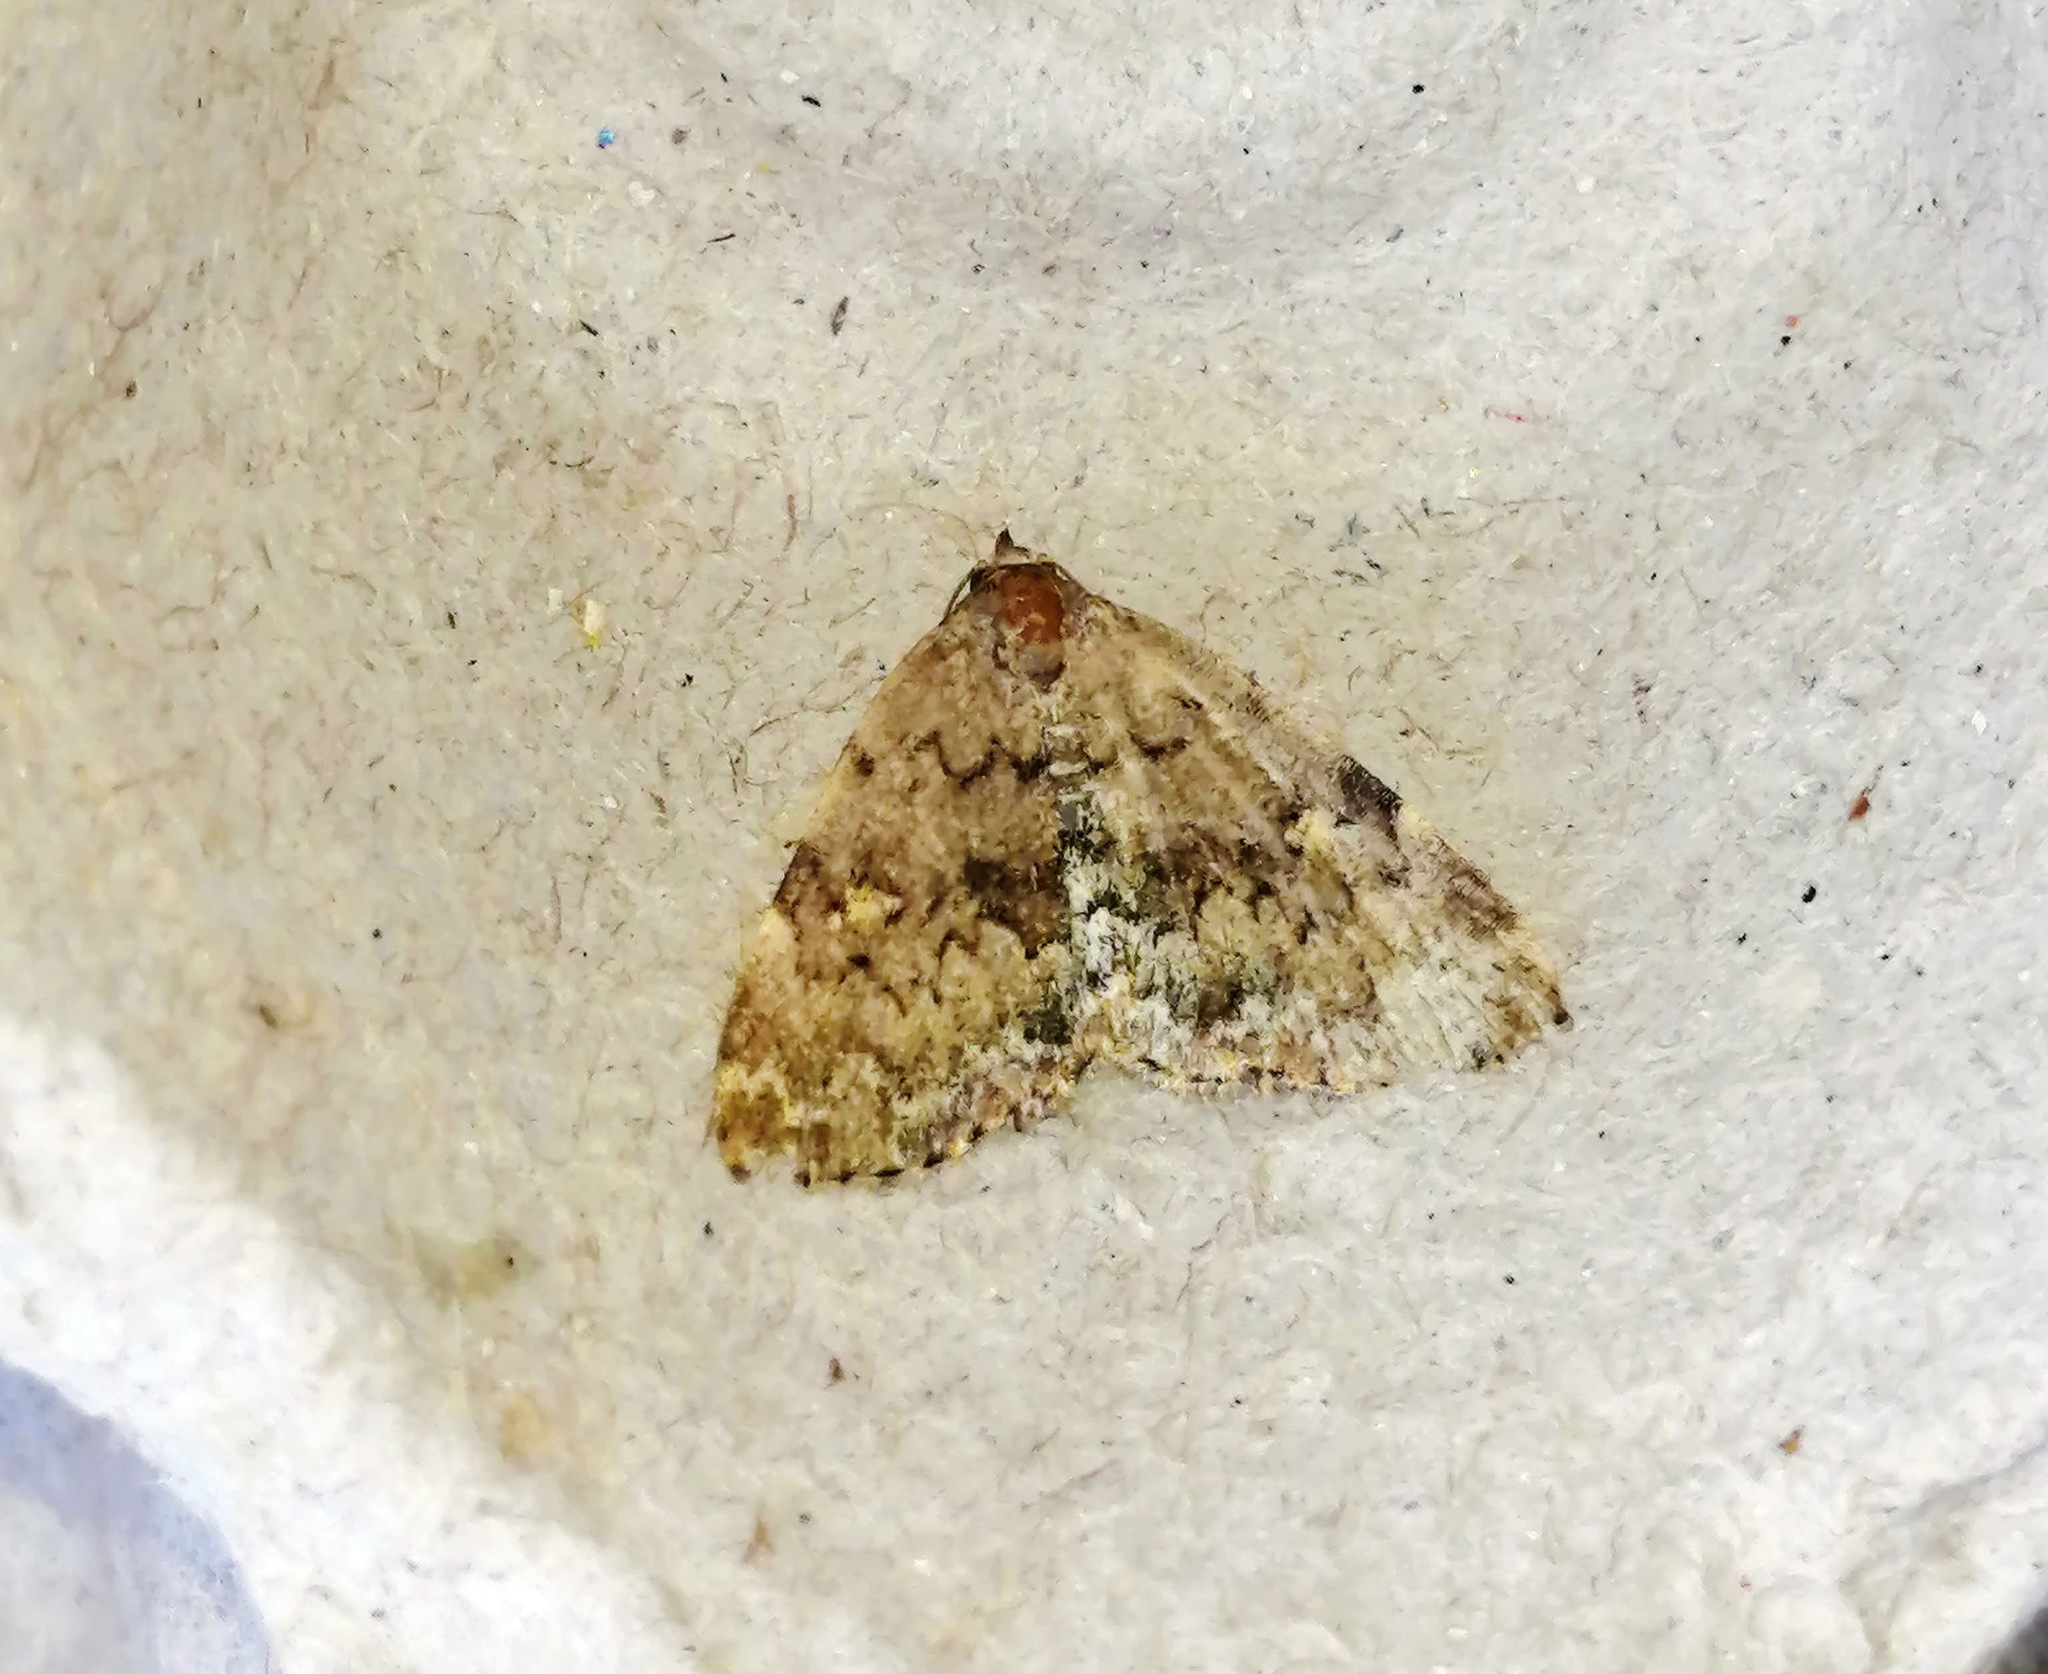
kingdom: Animalia
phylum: Arthropoda
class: Insecta
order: Lepidoptera
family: Erebidae
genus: Idia
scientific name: Idia aemula
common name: Common idia moth
